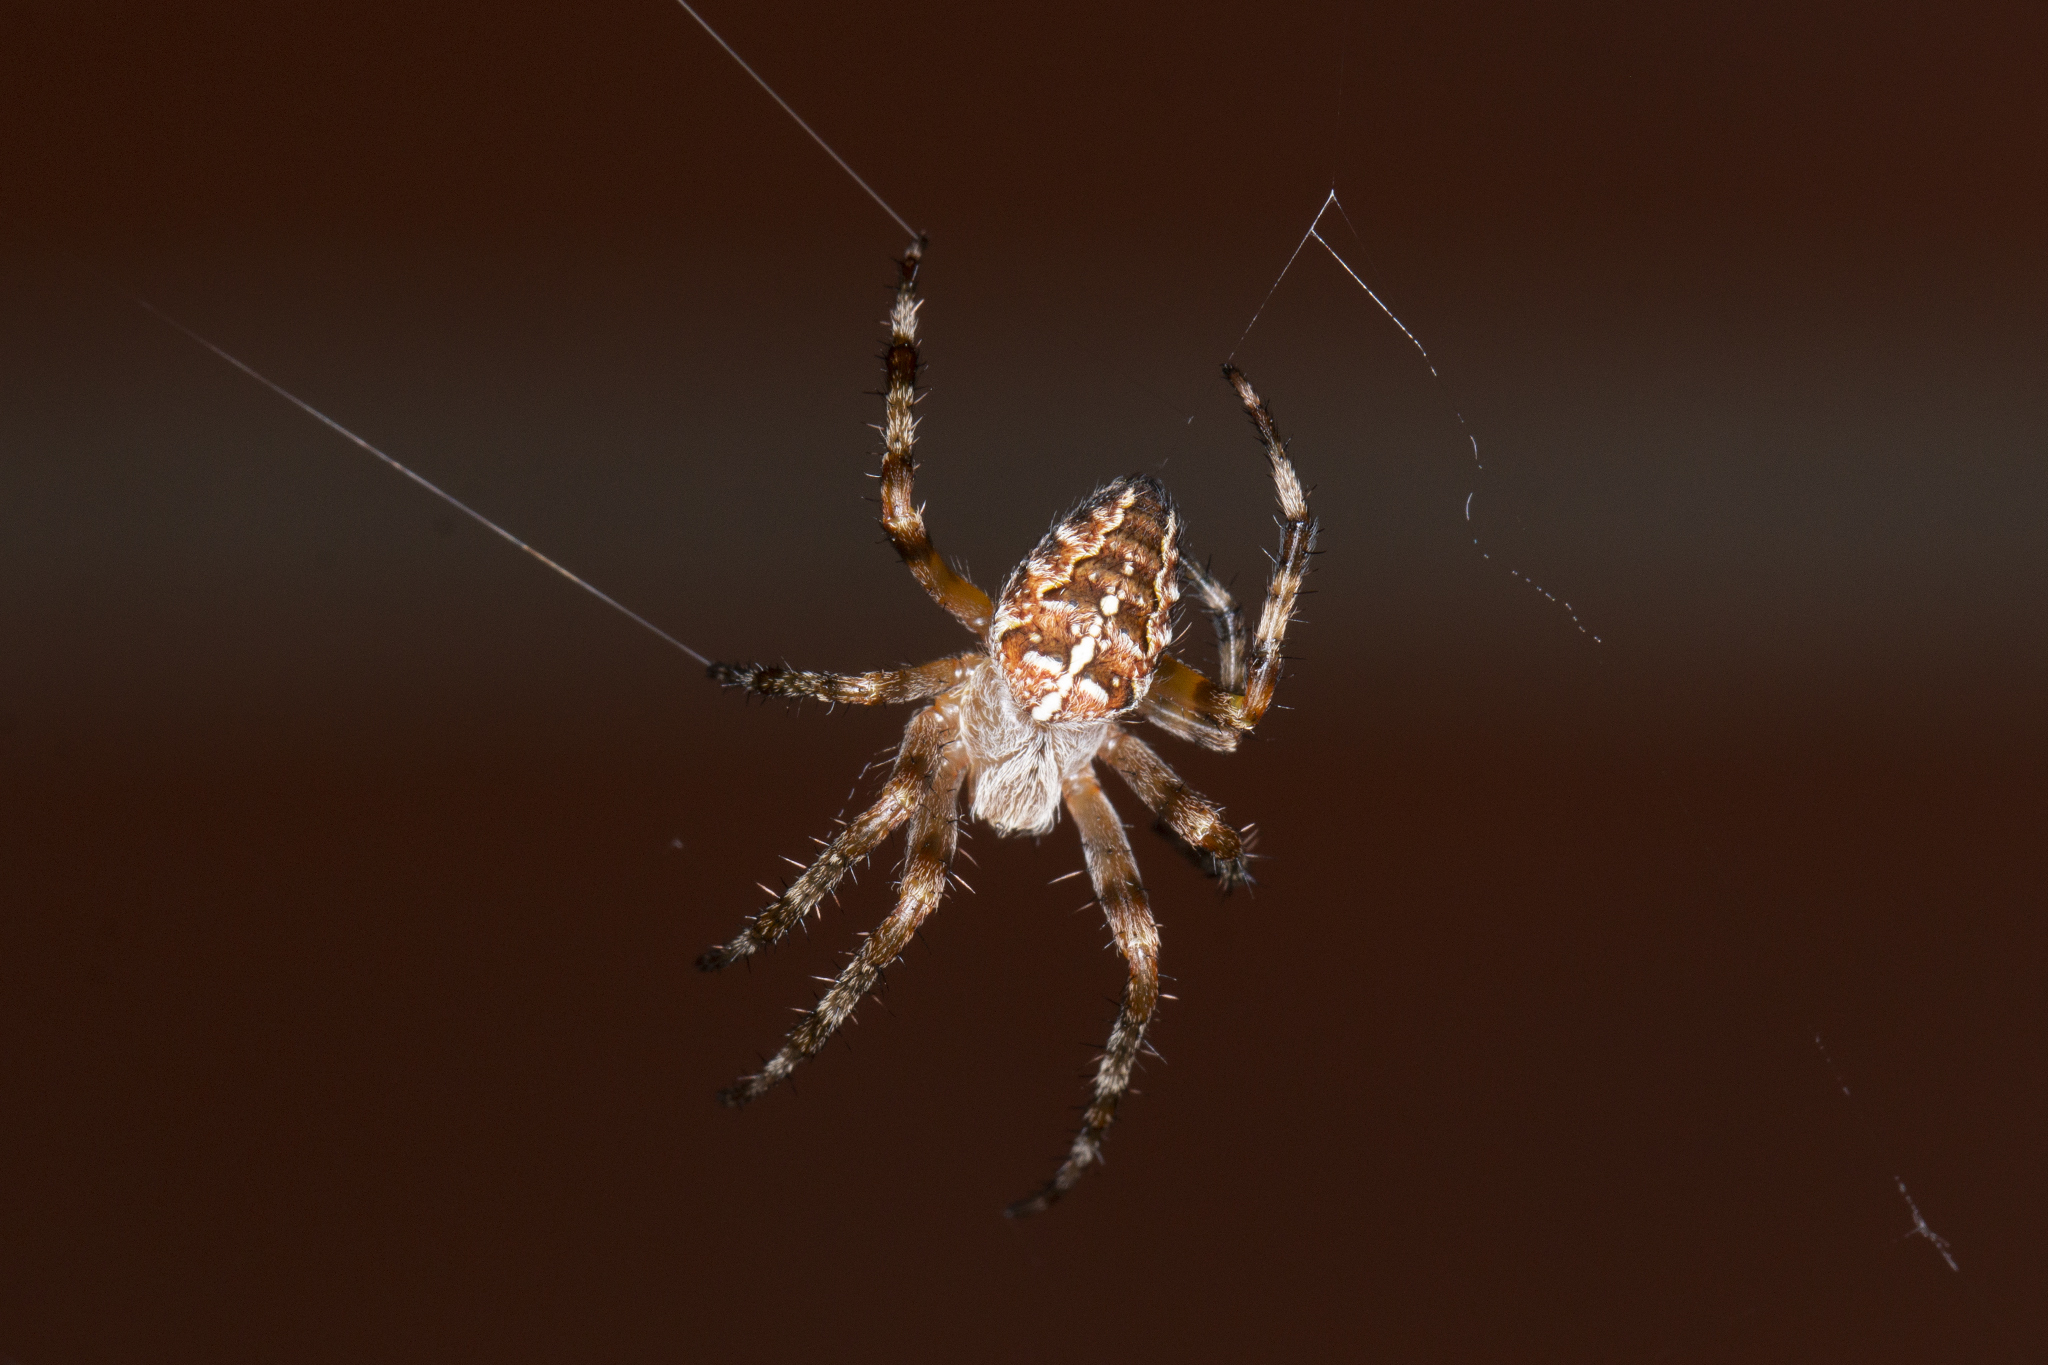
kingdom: Animalia
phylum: Arthropoda
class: Arachnida
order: Araneae
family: Araneidae
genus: Araneus
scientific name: Araneus diadematus
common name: Cross orbweaver
